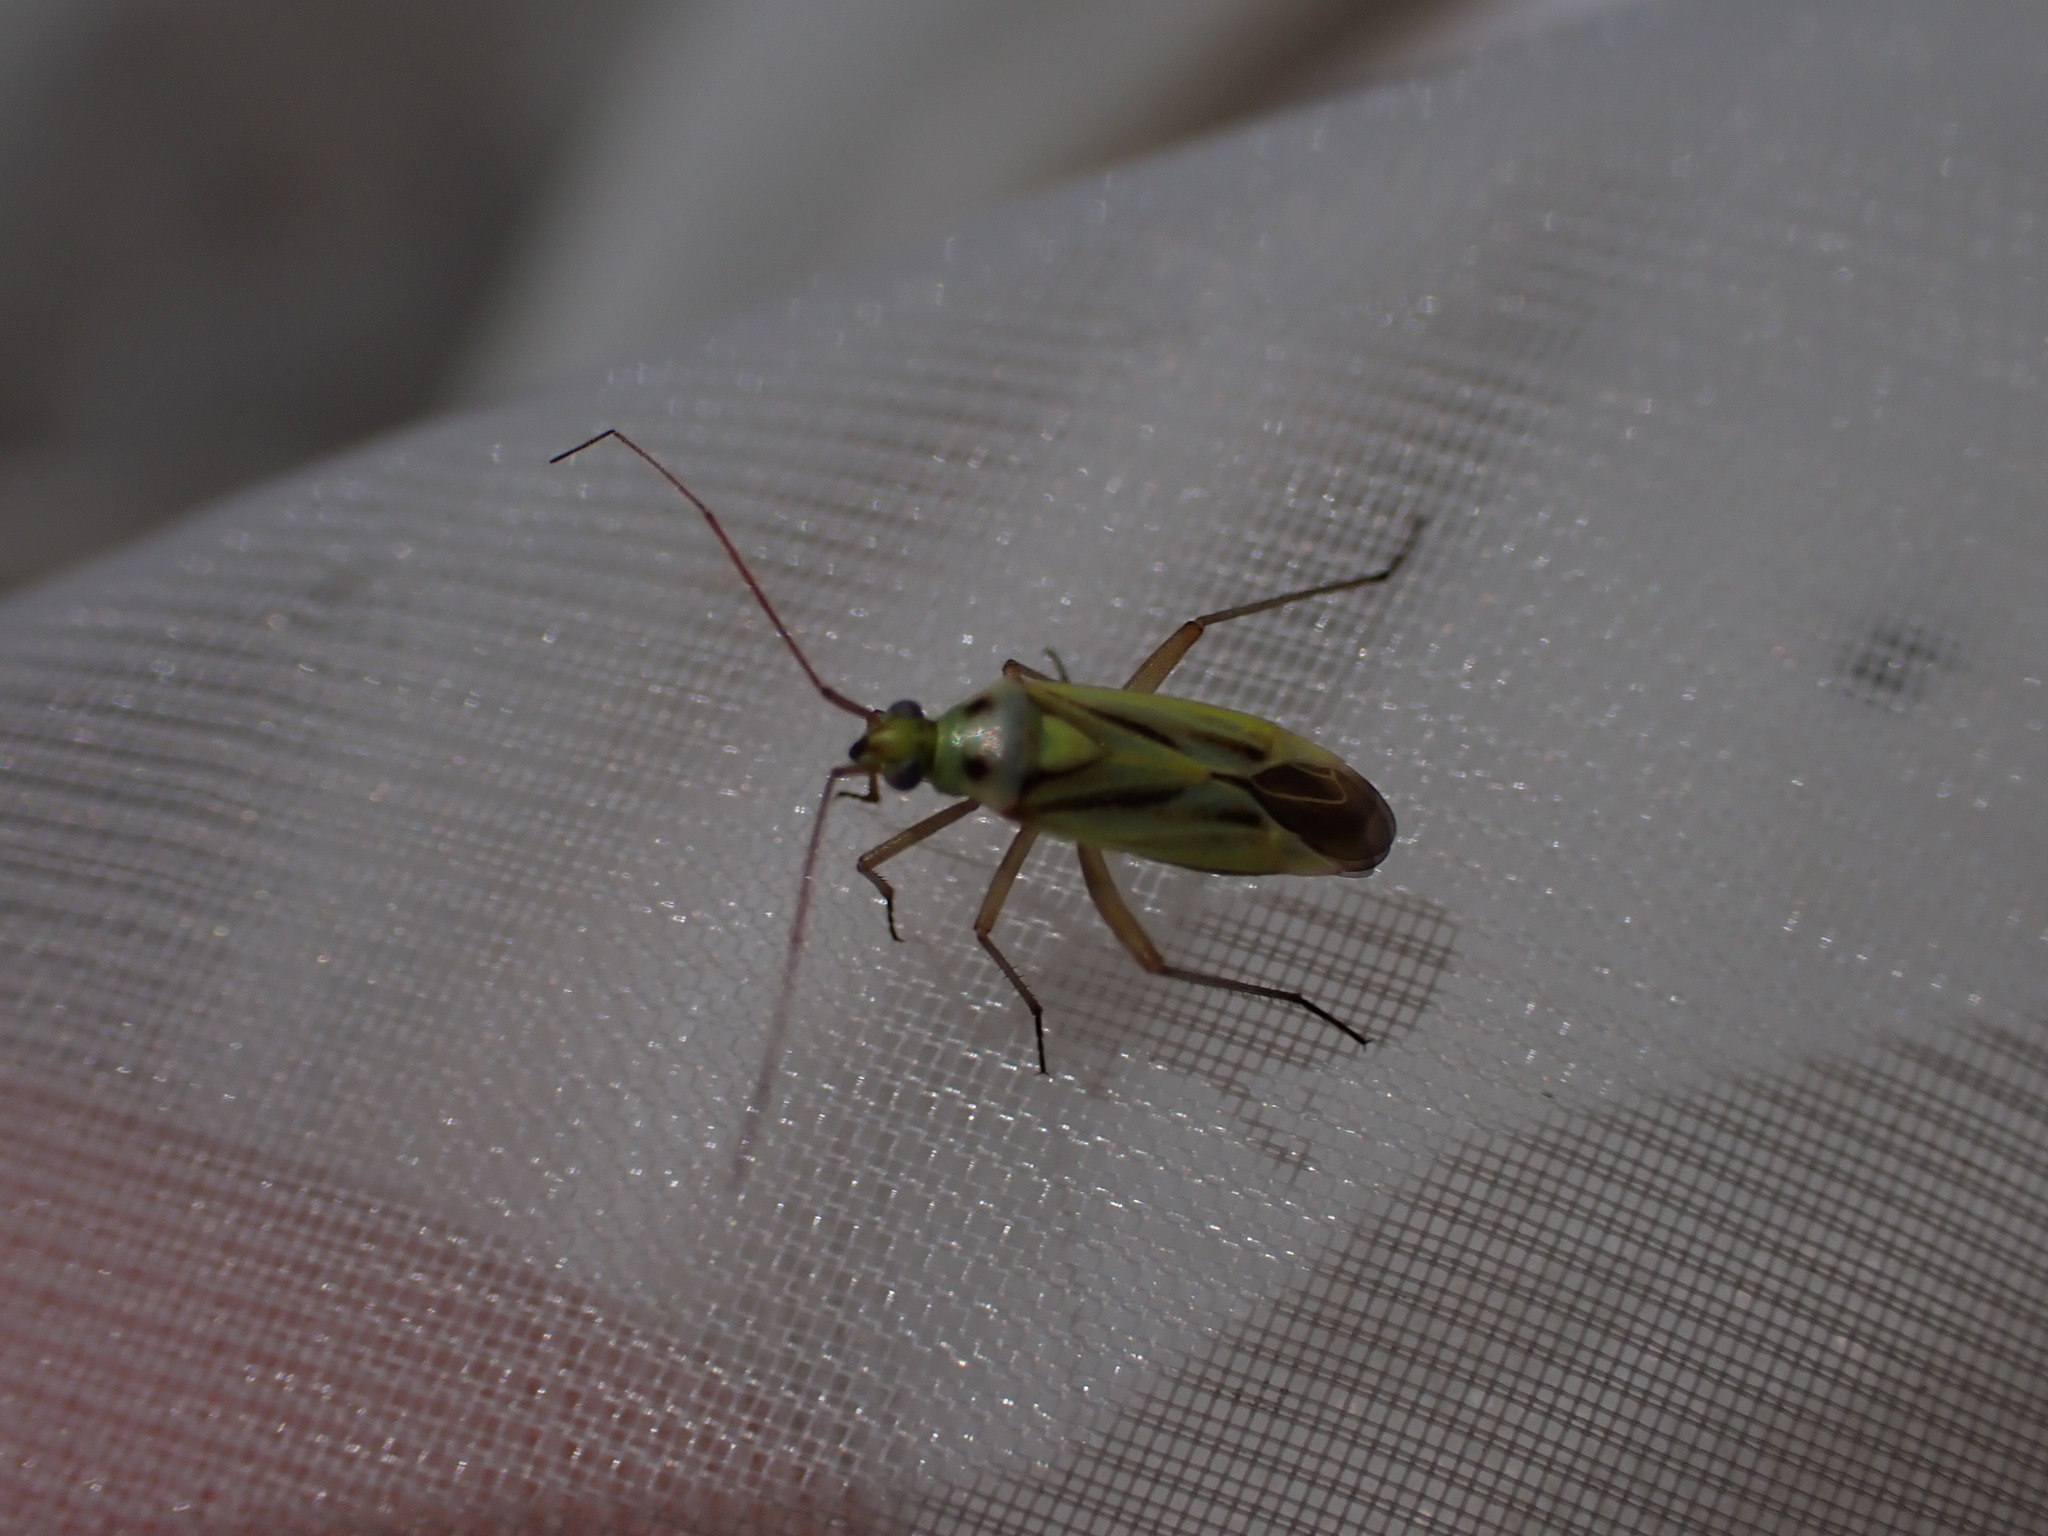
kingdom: Animalia
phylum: Arthropoda
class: Insecta
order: Hemiptera
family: Miridae
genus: Stenotus
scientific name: Stenotus binotatus
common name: Plant bug
